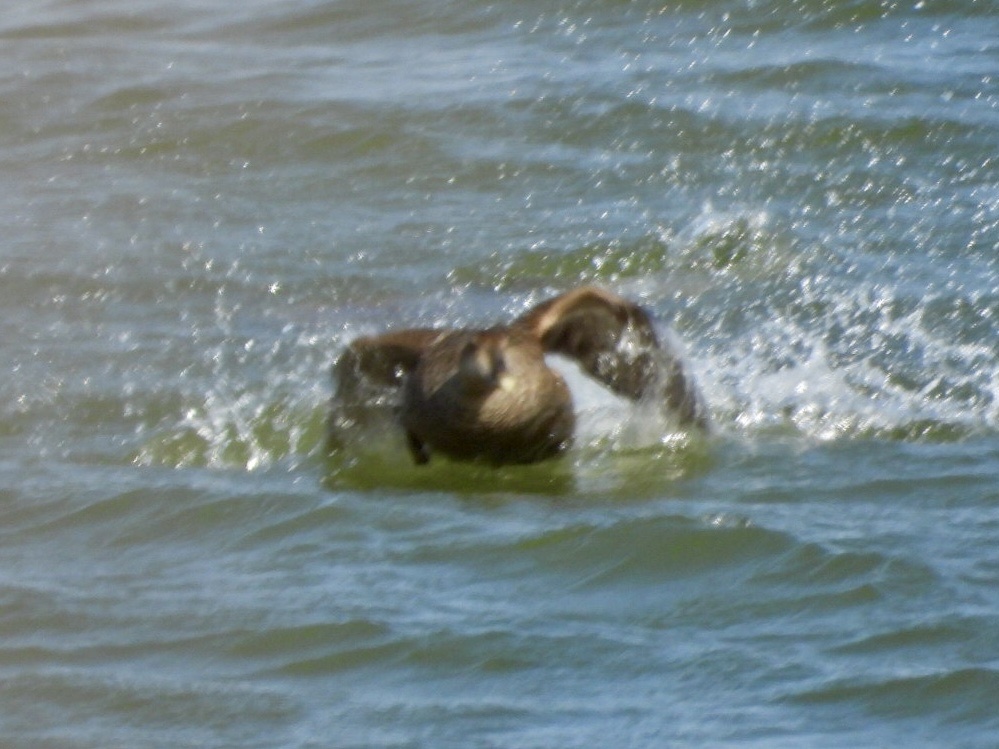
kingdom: Animalia
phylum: Chordata
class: Aves
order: Anseriformes
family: Anatidae
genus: Somateria
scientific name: Somateria mollissima
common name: Common eider
